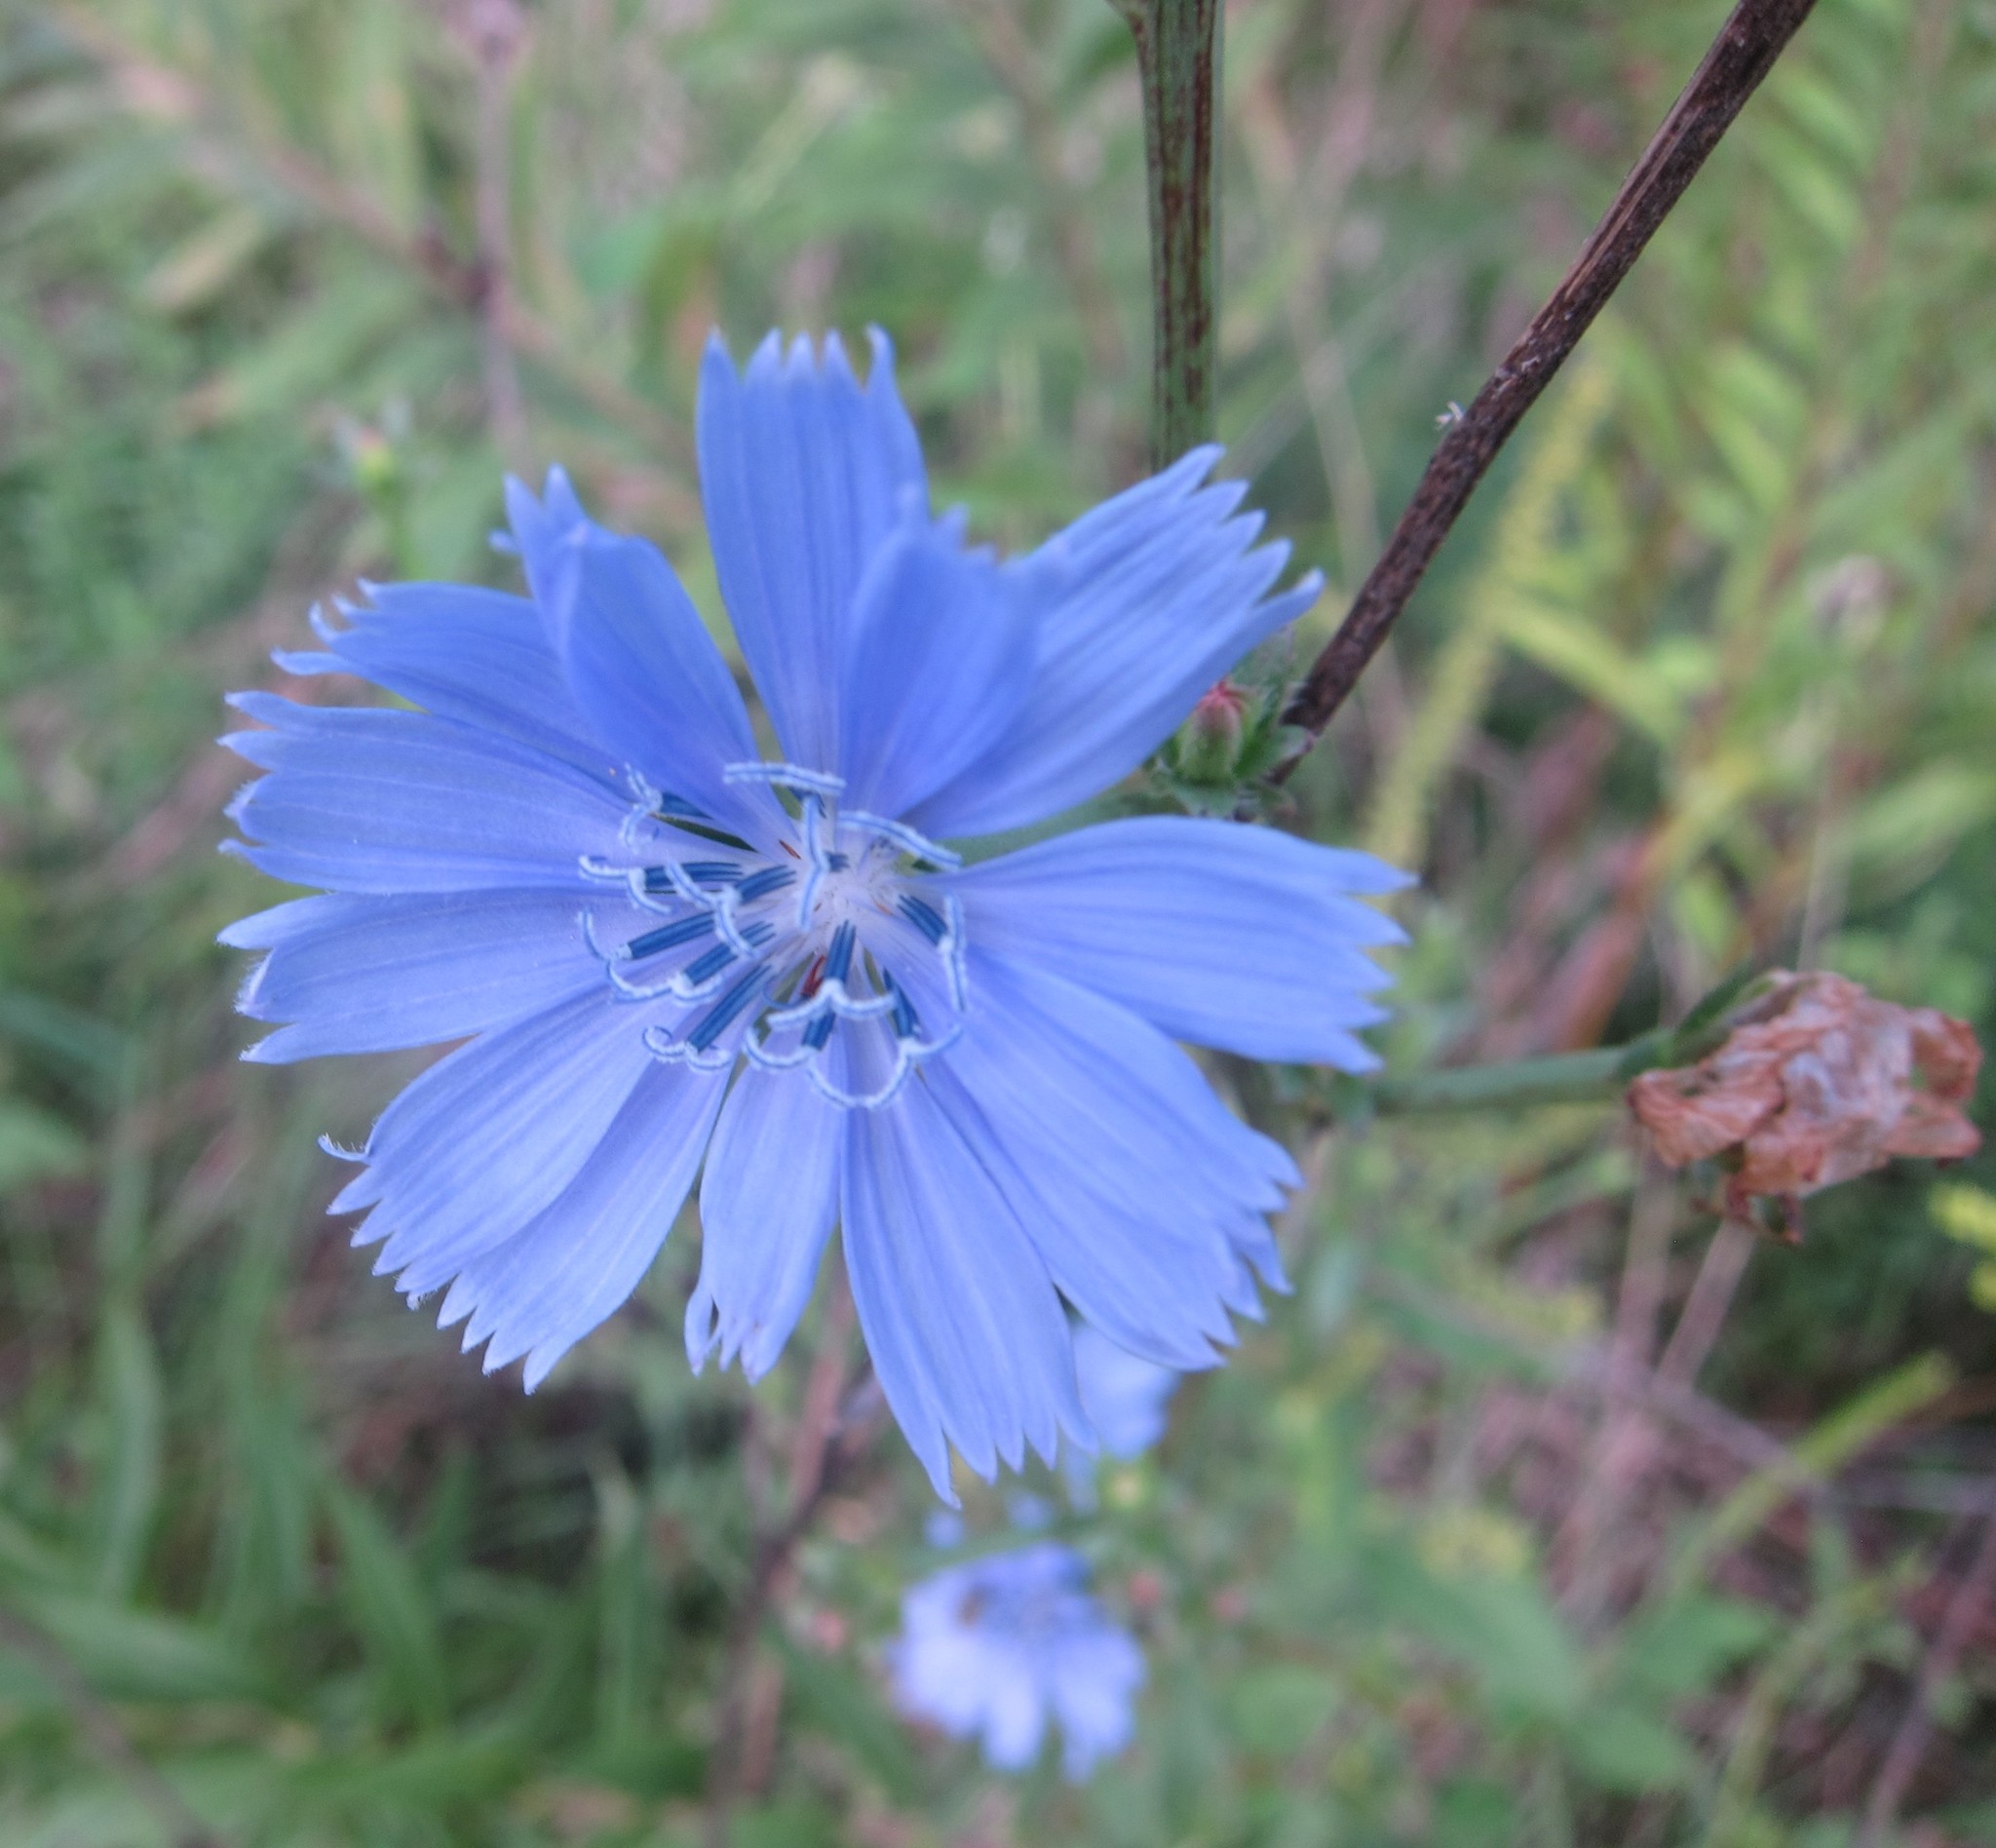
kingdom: Plantae
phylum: Tracheophyta
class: Magnoliopsida
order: Asterales
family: Asteraceae
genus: Cichorium
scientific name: Cichorium intybus
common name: Chicory
